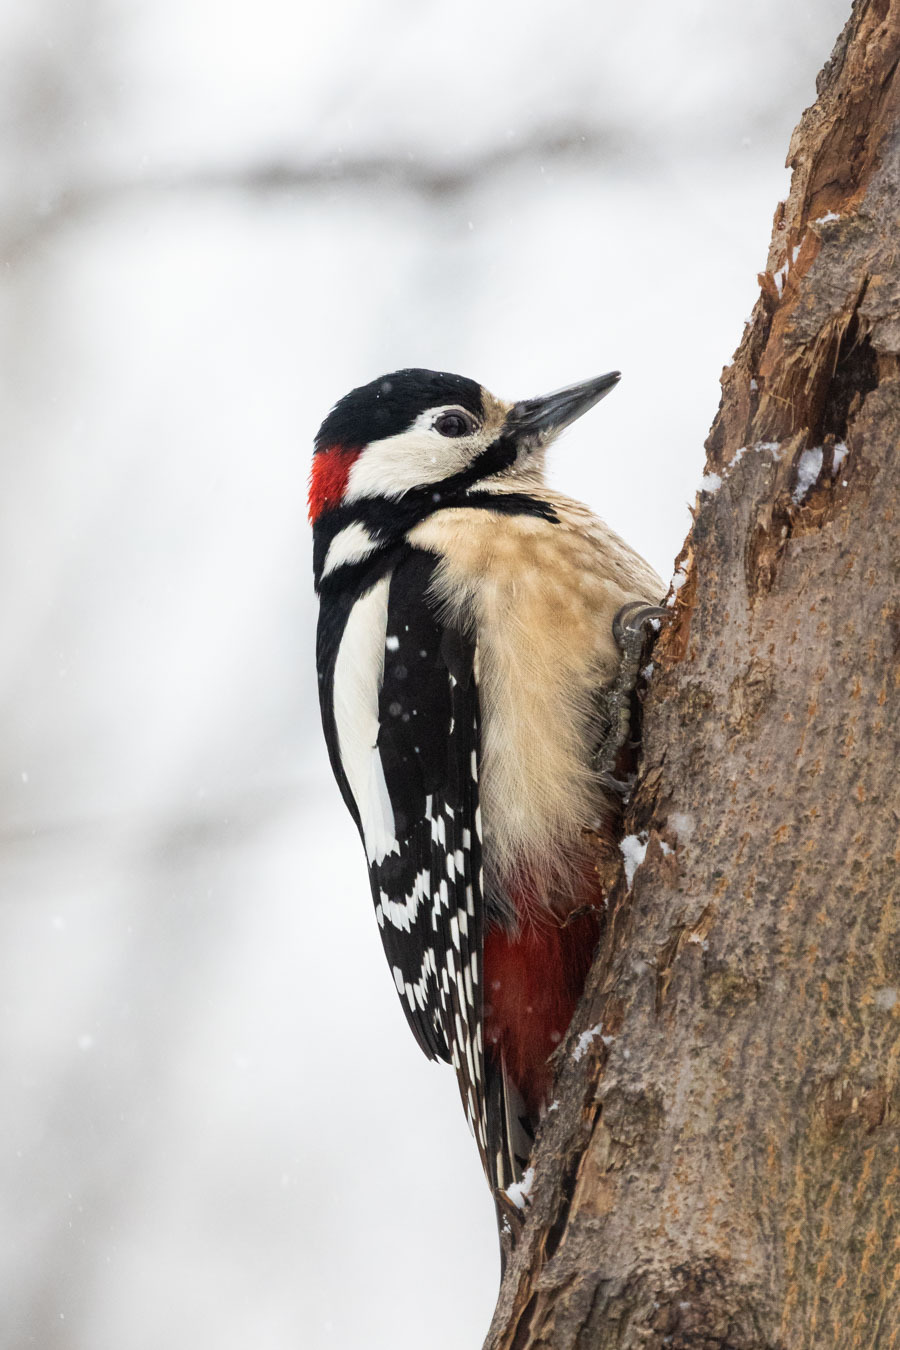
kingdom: Animalia
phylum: Chordata
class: Aves
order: Piciformes
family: Picidae
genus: Dendrocopos
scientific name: Dendrocopos major
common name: Great spotted woodpecker
